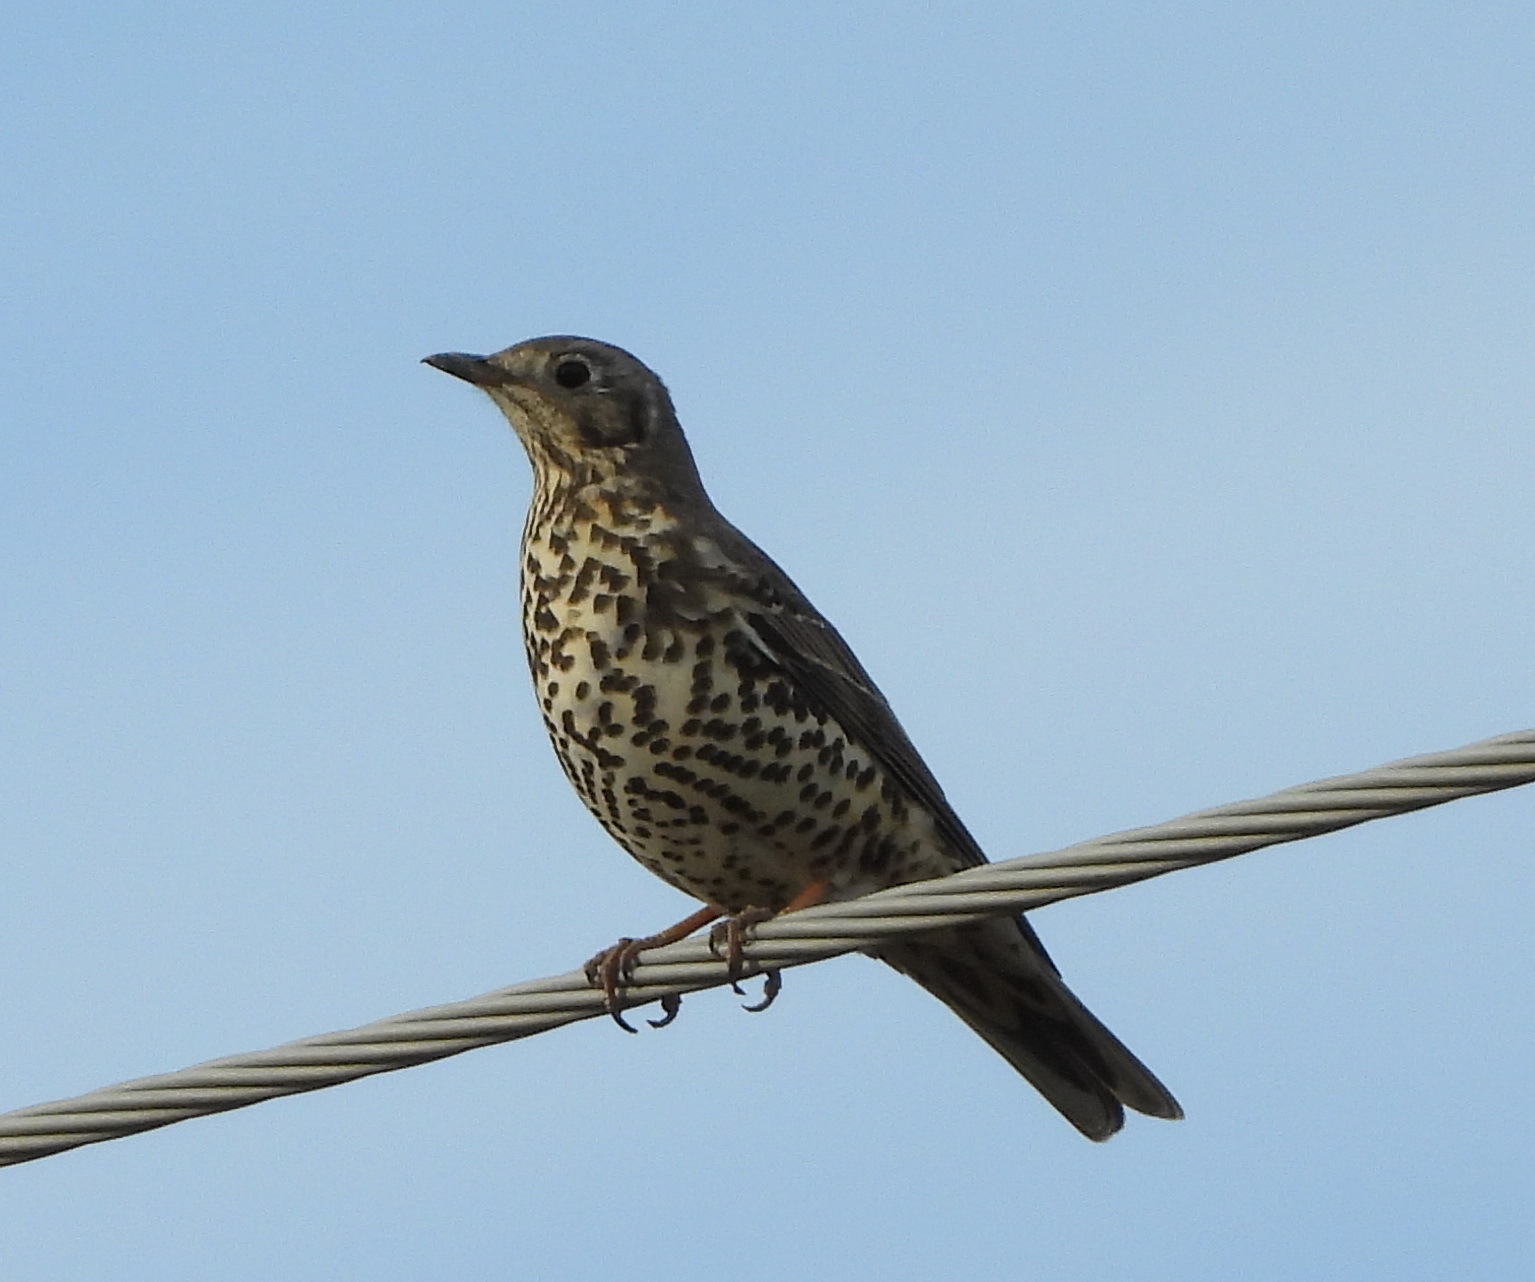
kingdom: Animalia
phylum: Chordata
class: Aves
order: Passeriformes
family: Turdidae
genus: Turdus
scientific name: Turdus viscivorus
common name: Mistle thrush
